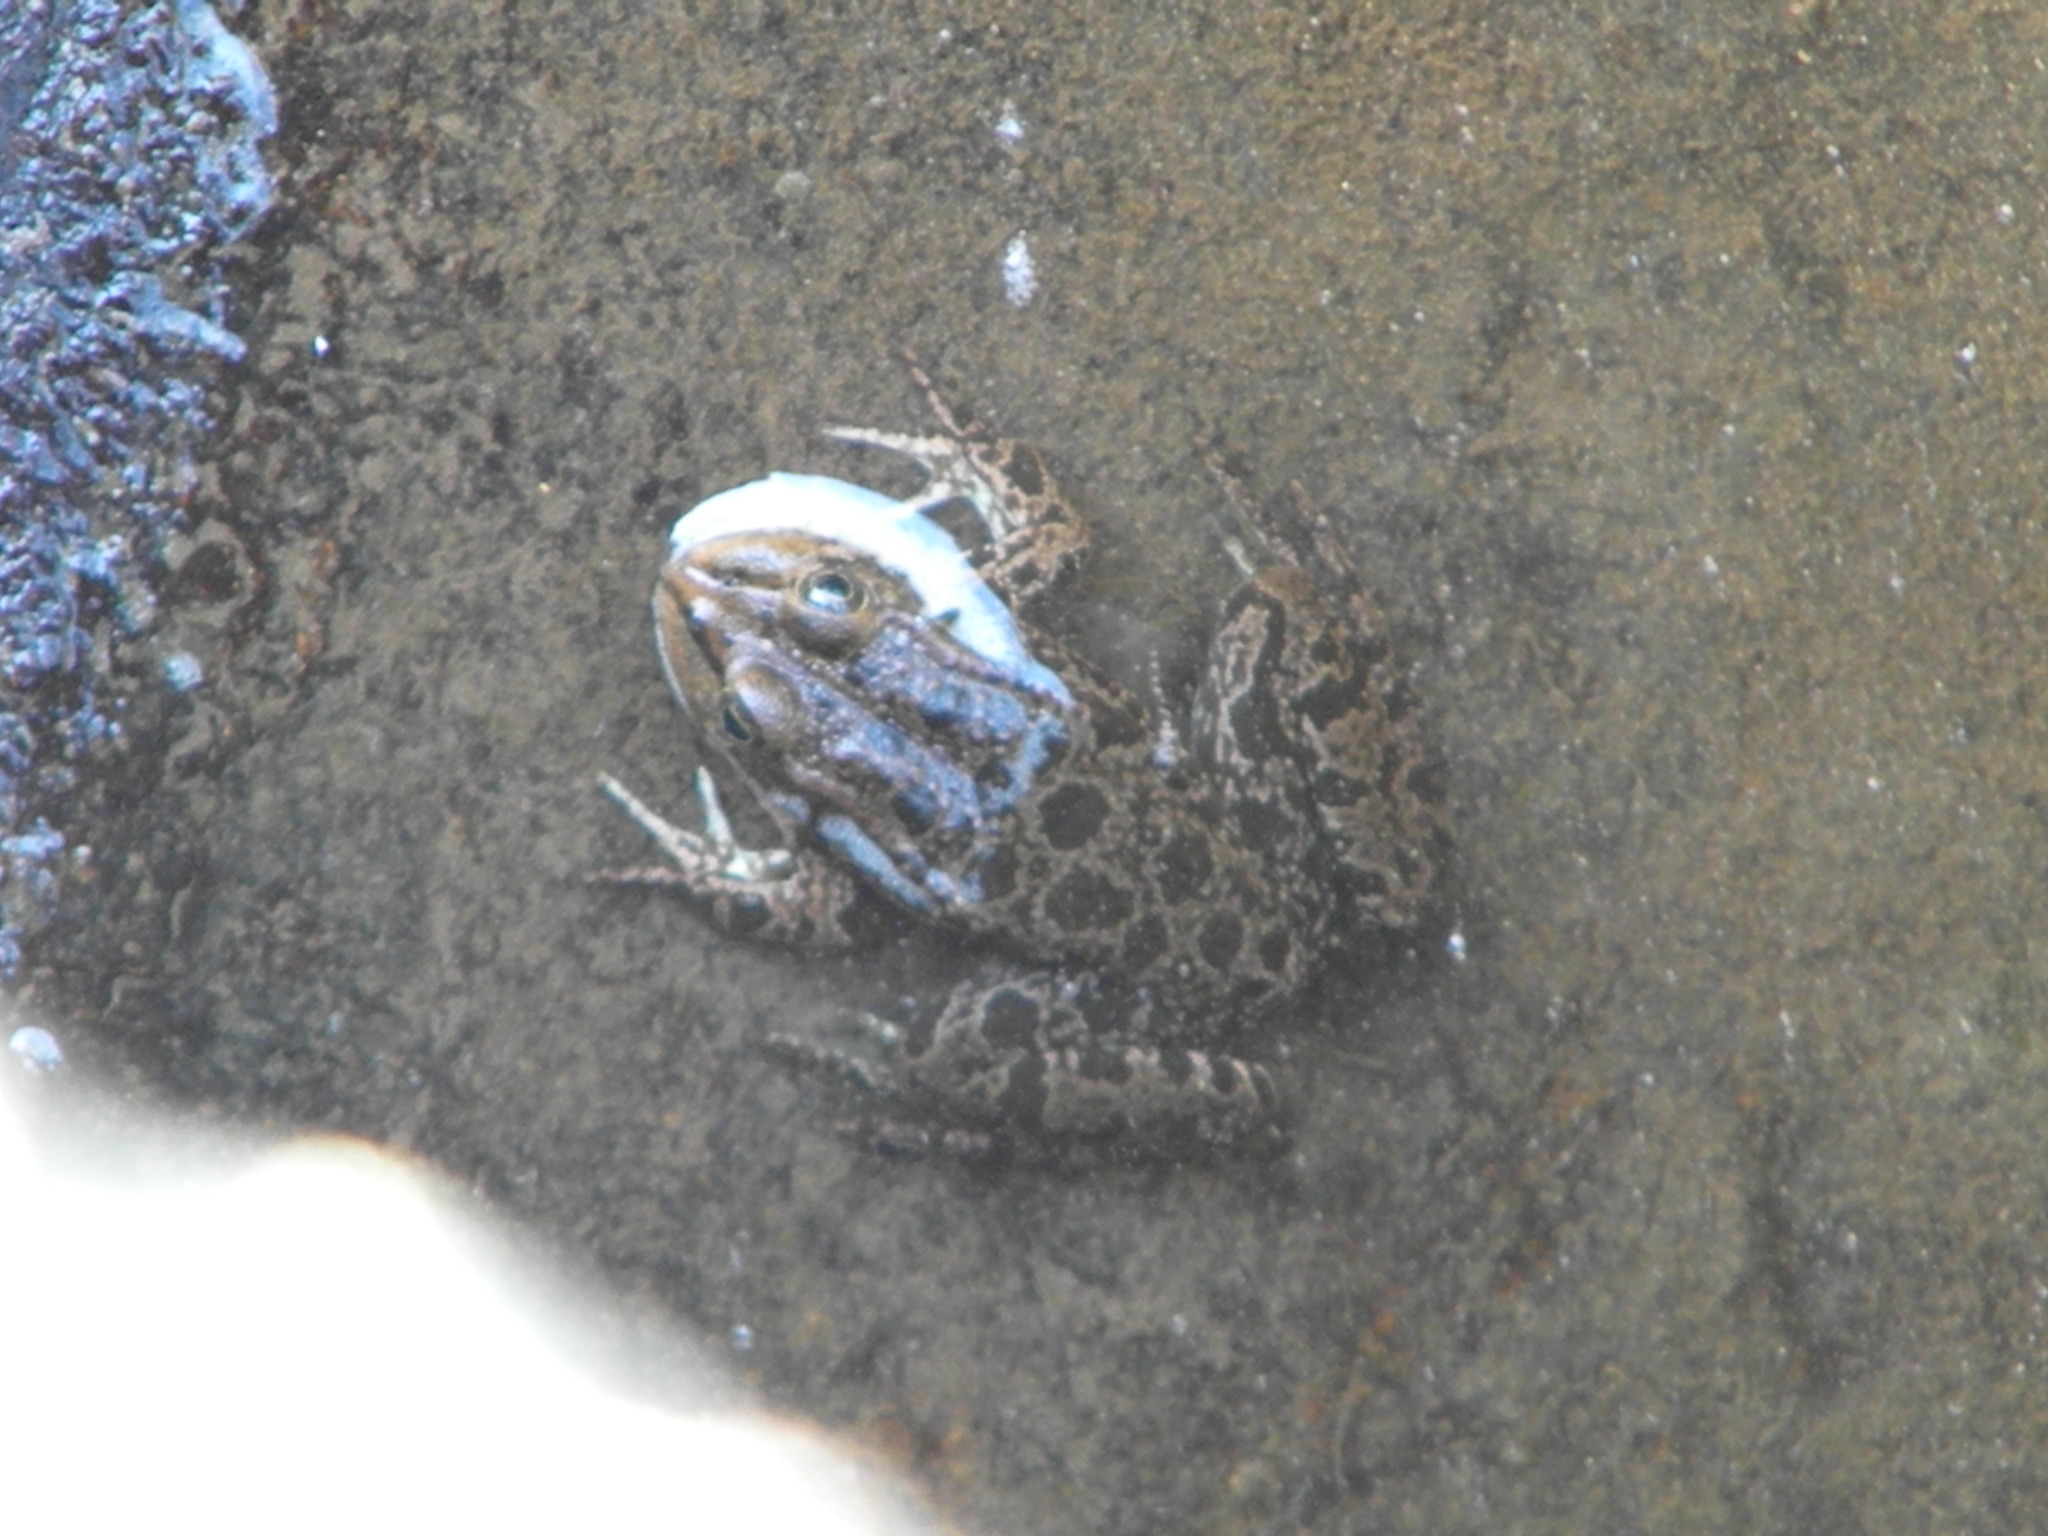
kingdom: Animalia
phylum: Chordata
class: Amphibia
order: Anura
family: Ranidae
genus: Pelophylax
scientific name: Pelophylax ridibundus
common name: Marsh frog
